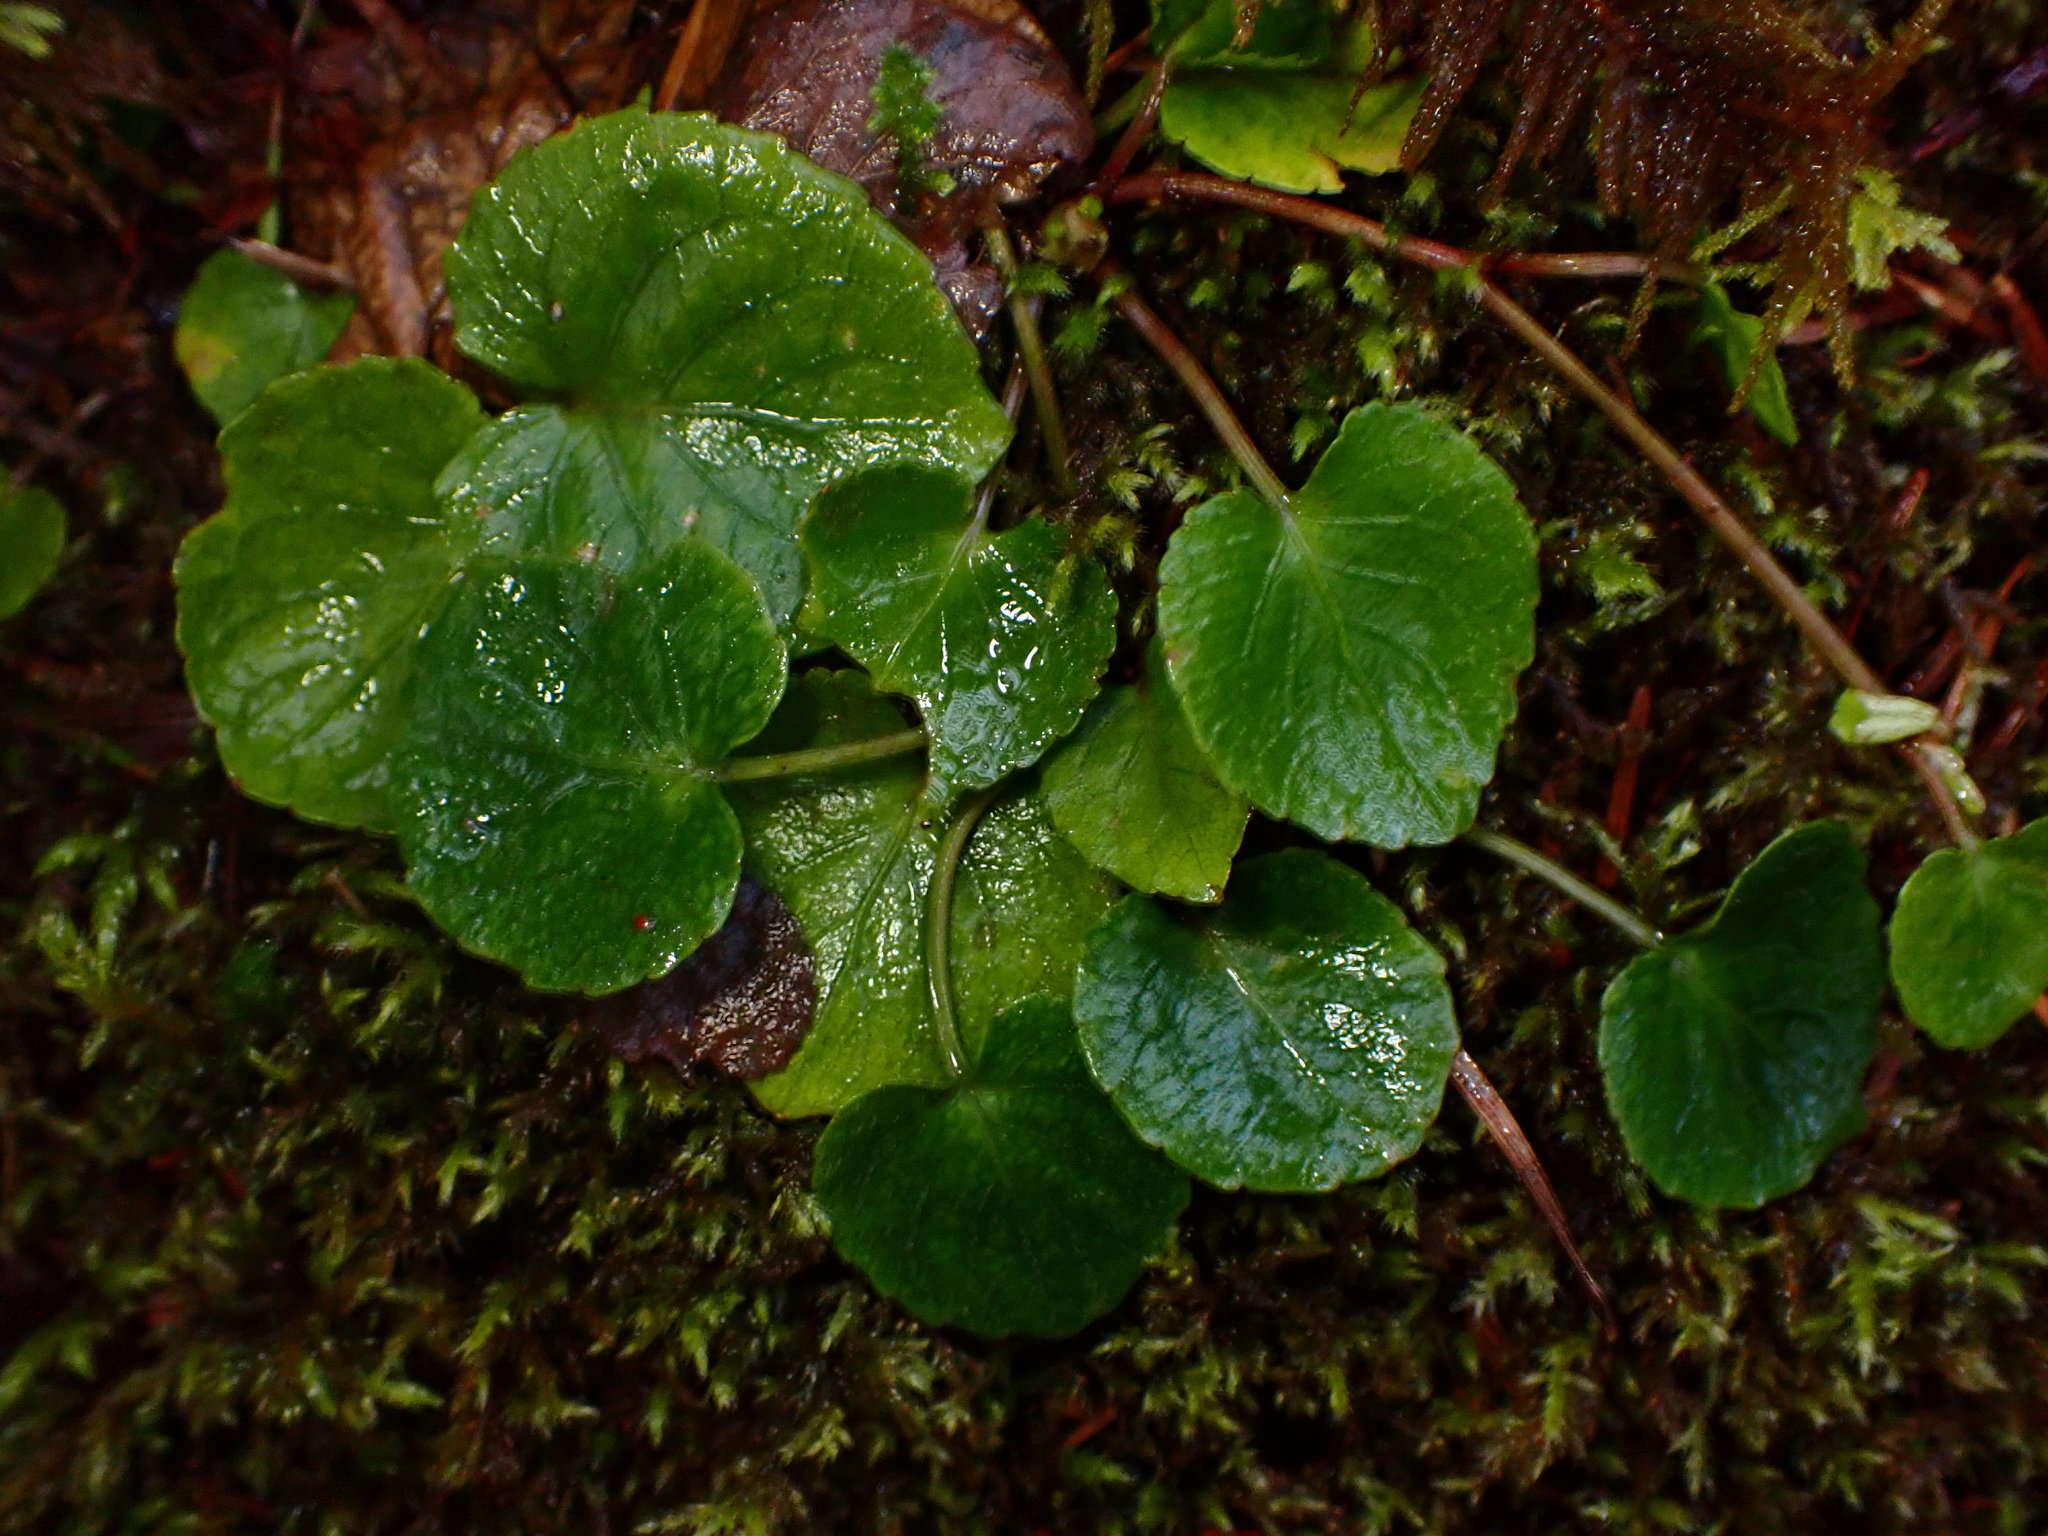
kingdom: Plantae
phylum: Tracheophyta
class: Magnoliopsida
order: Malpighiales
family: Violaceae
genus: Viola
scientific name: Viola sempervirens
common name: Evergreen violet
